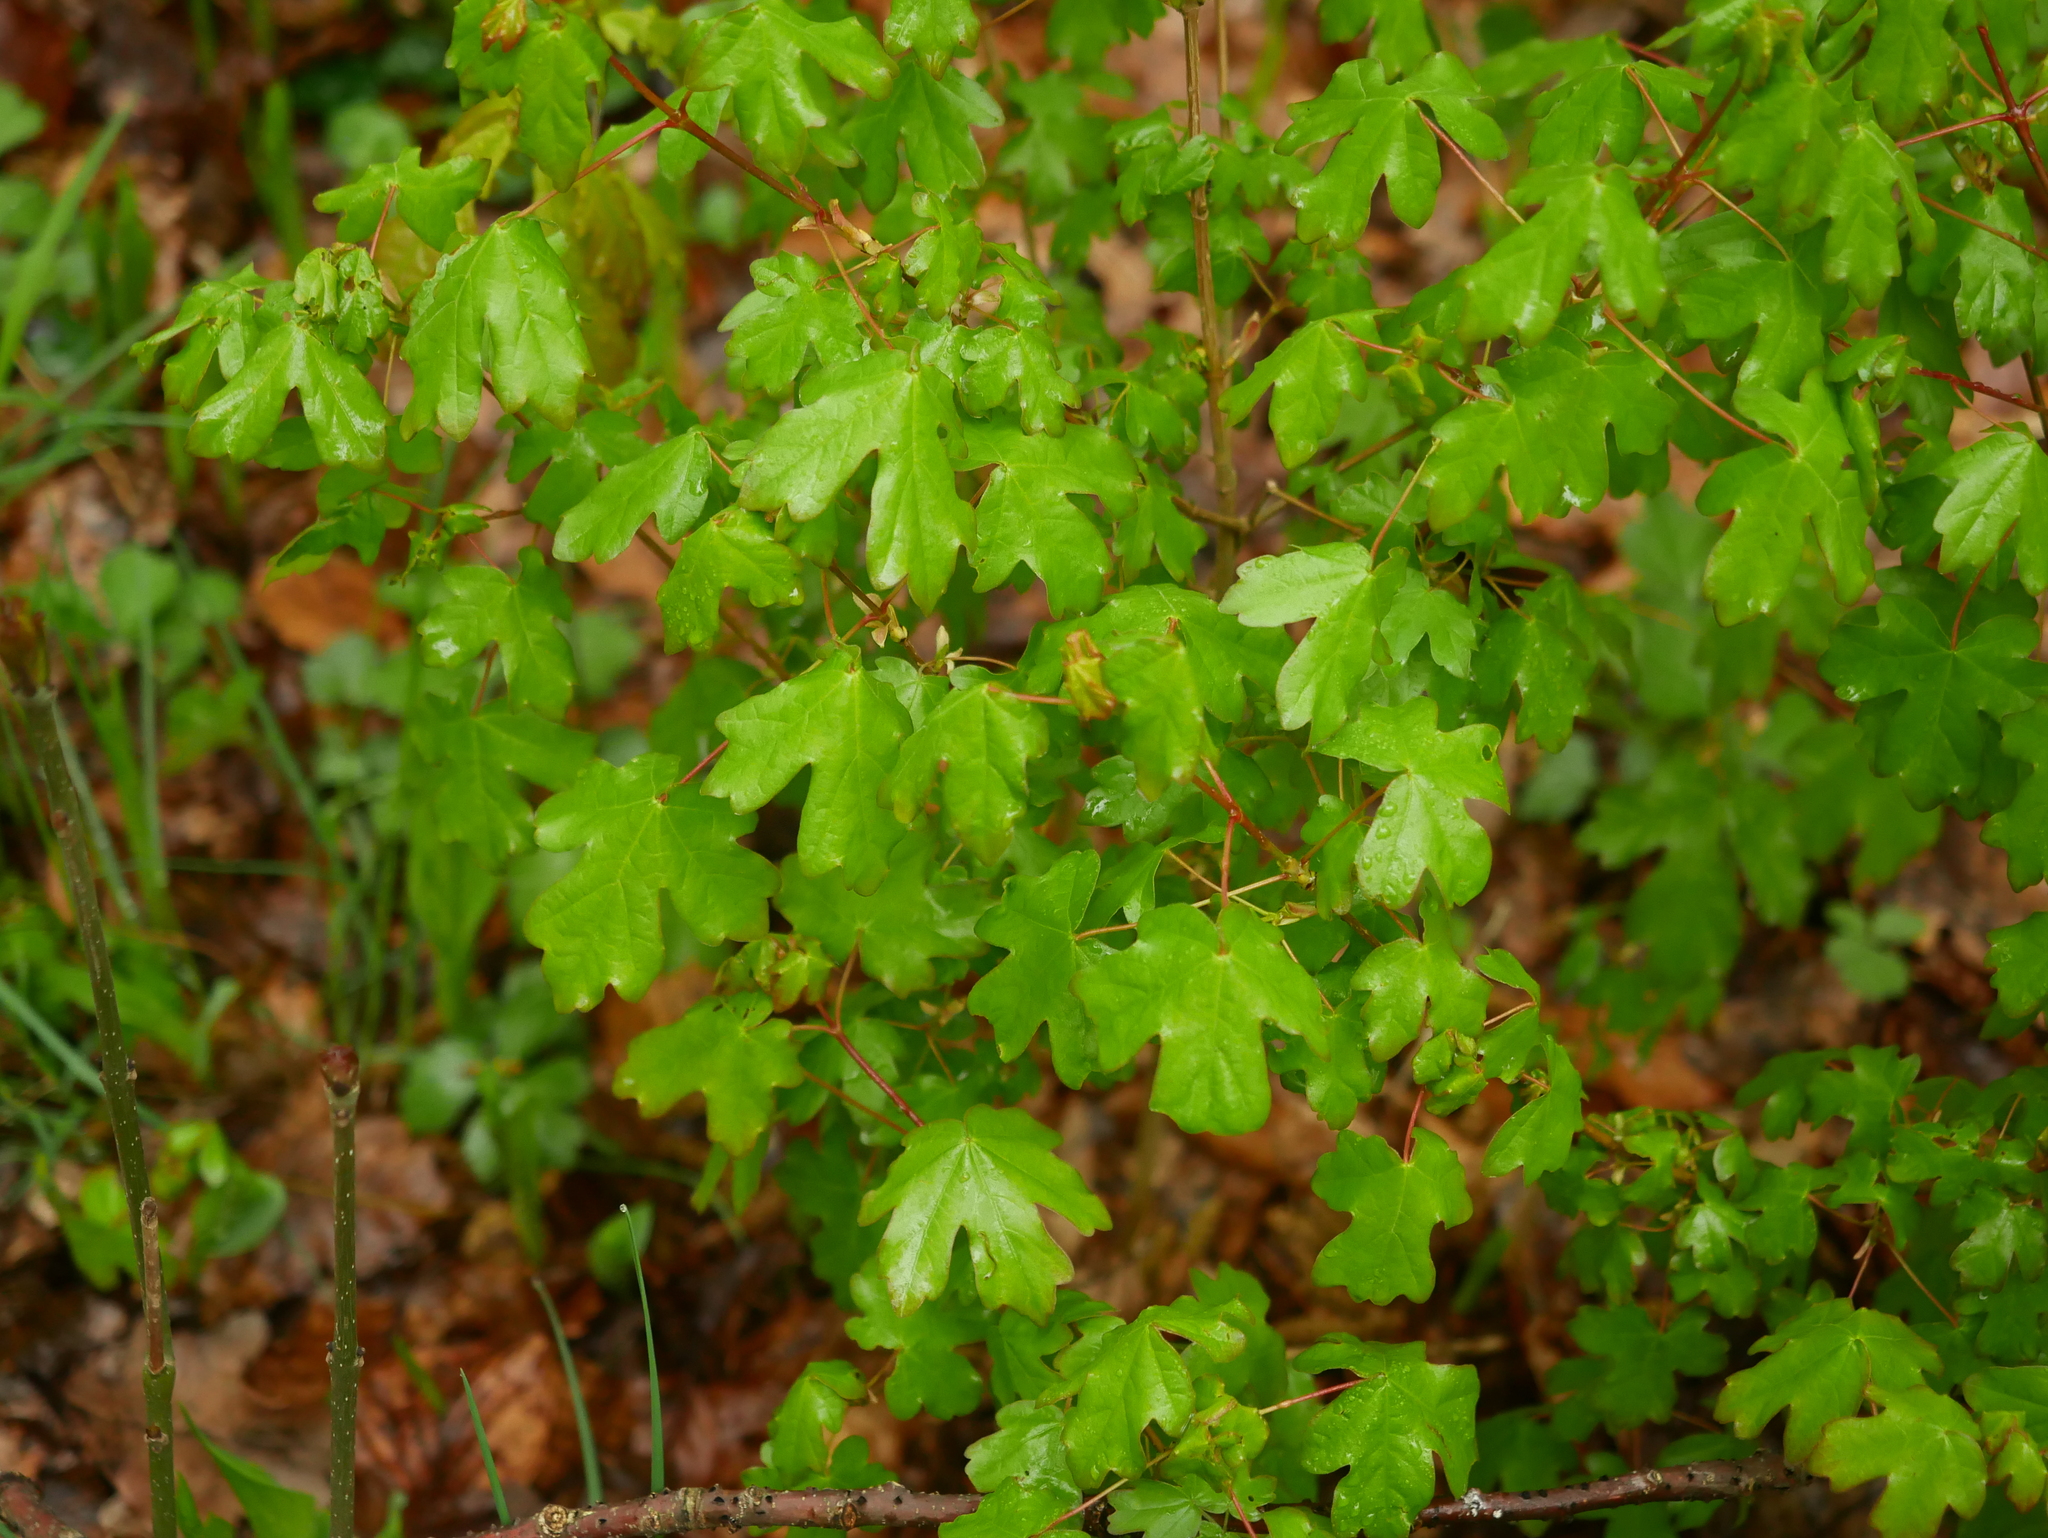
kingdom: Plantae
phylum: Tracheophyta
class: Magnoliopsida
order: Sapindales
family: Sapindaceae
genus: Acer
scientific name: Acer campestre
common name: Field maple
